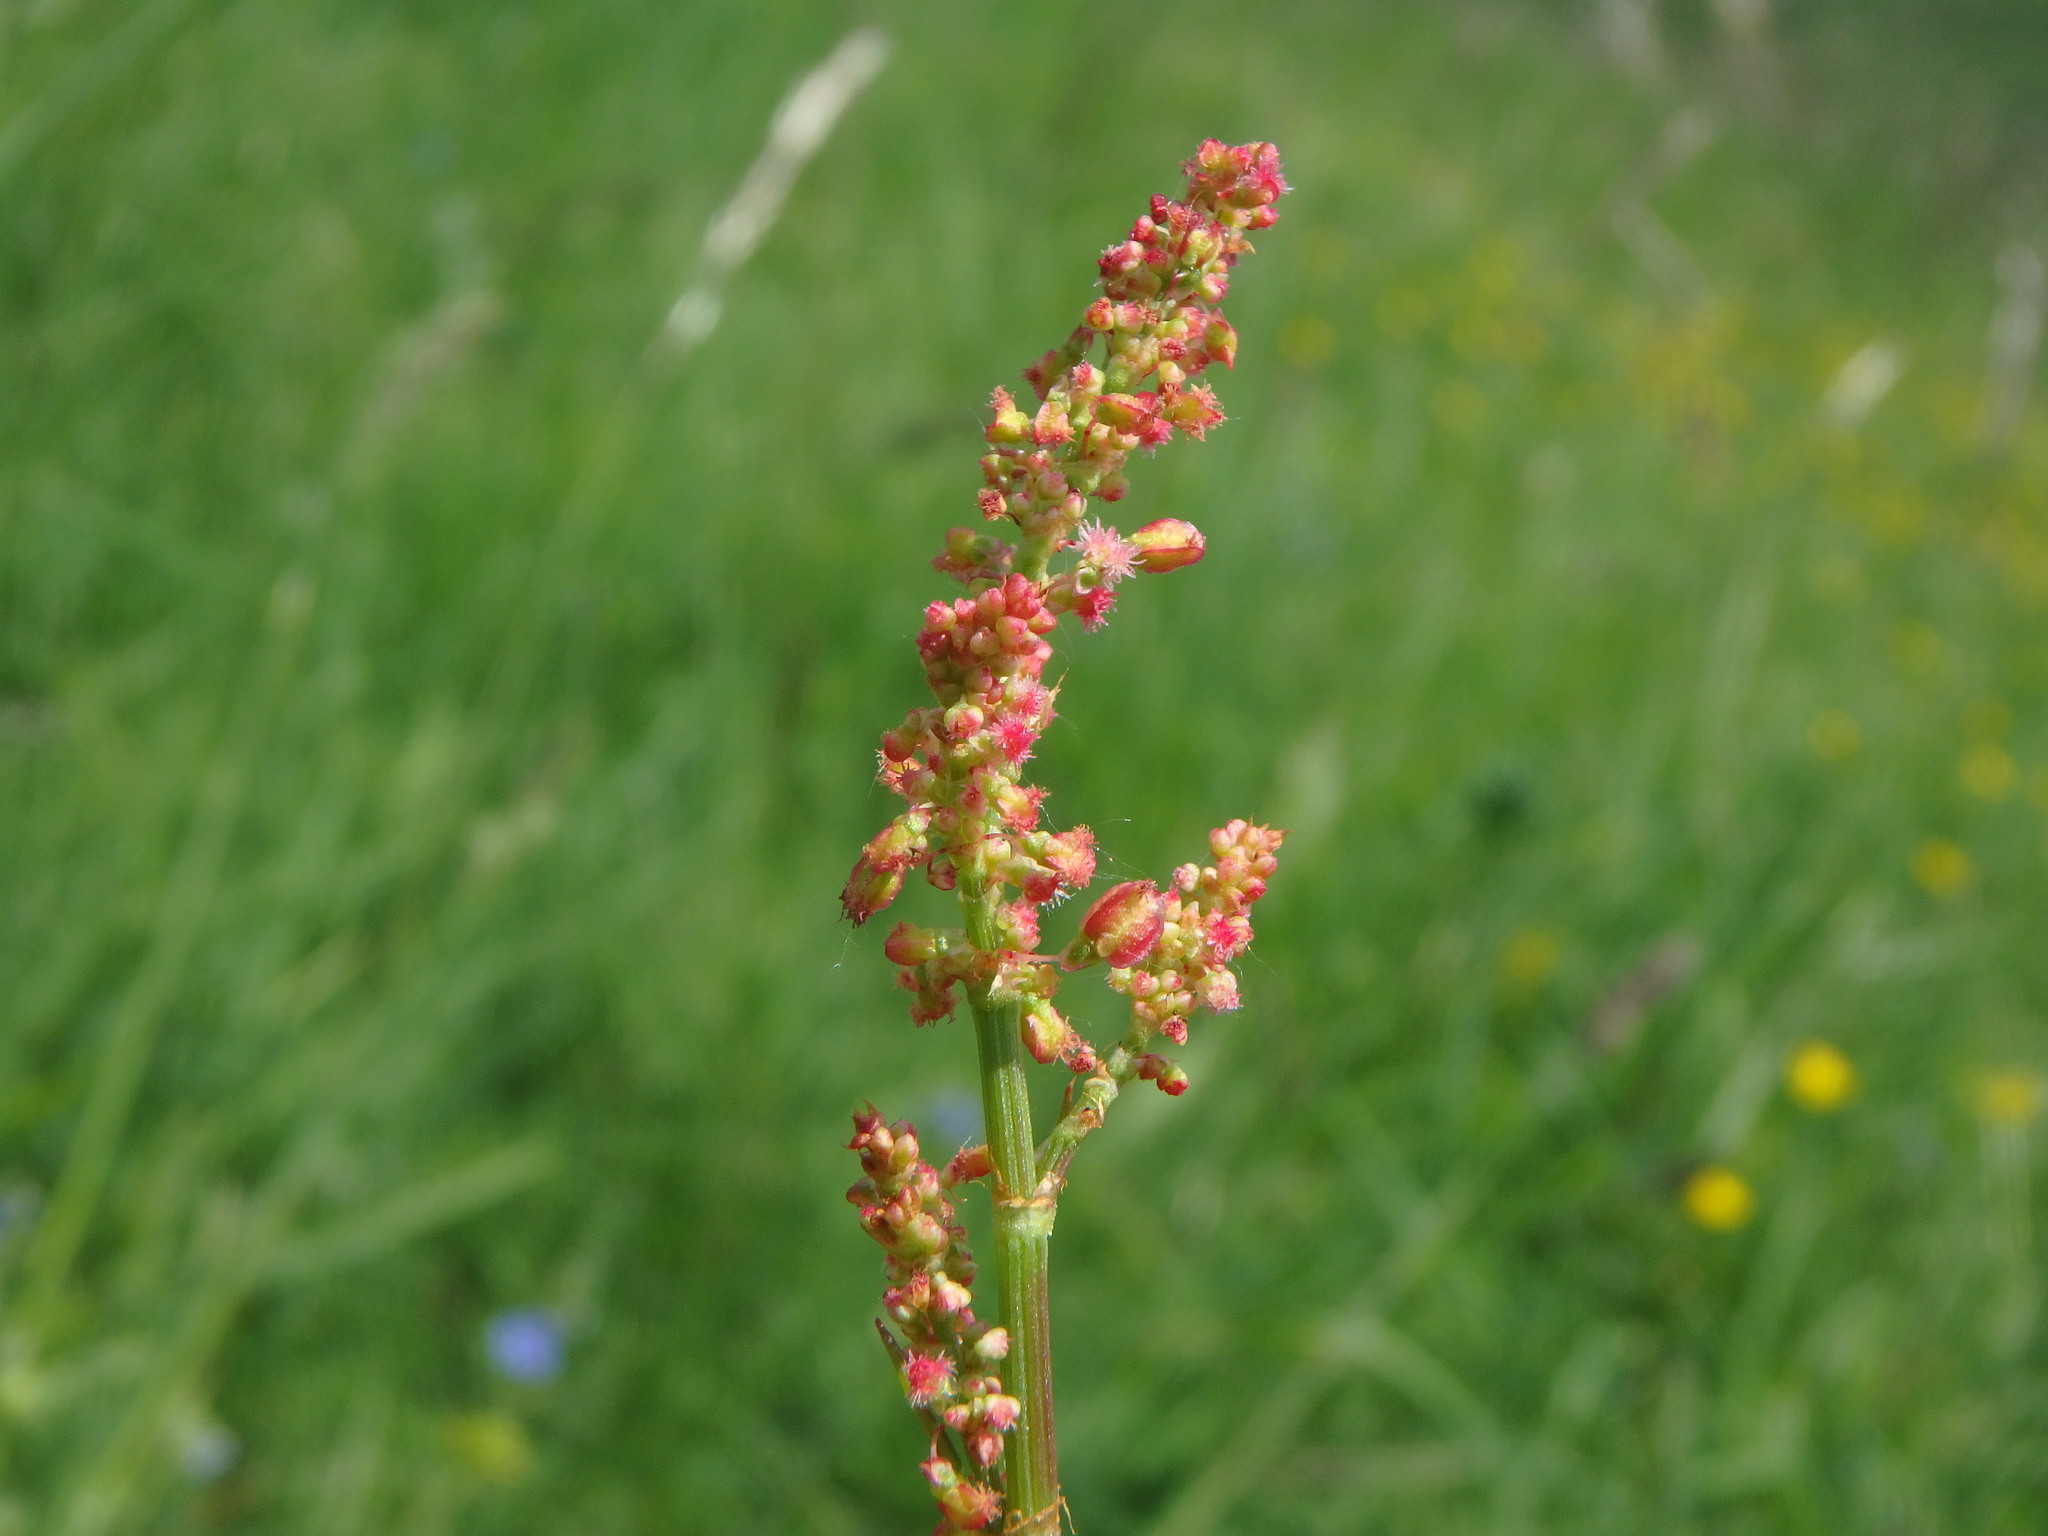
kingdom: Plantae
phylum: Tracheophyta
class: Magnoliopsida
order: Caryophyllales
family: Polygonaceae
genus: Rumex
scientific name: Rumex acetosa
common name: Garden sorrel
